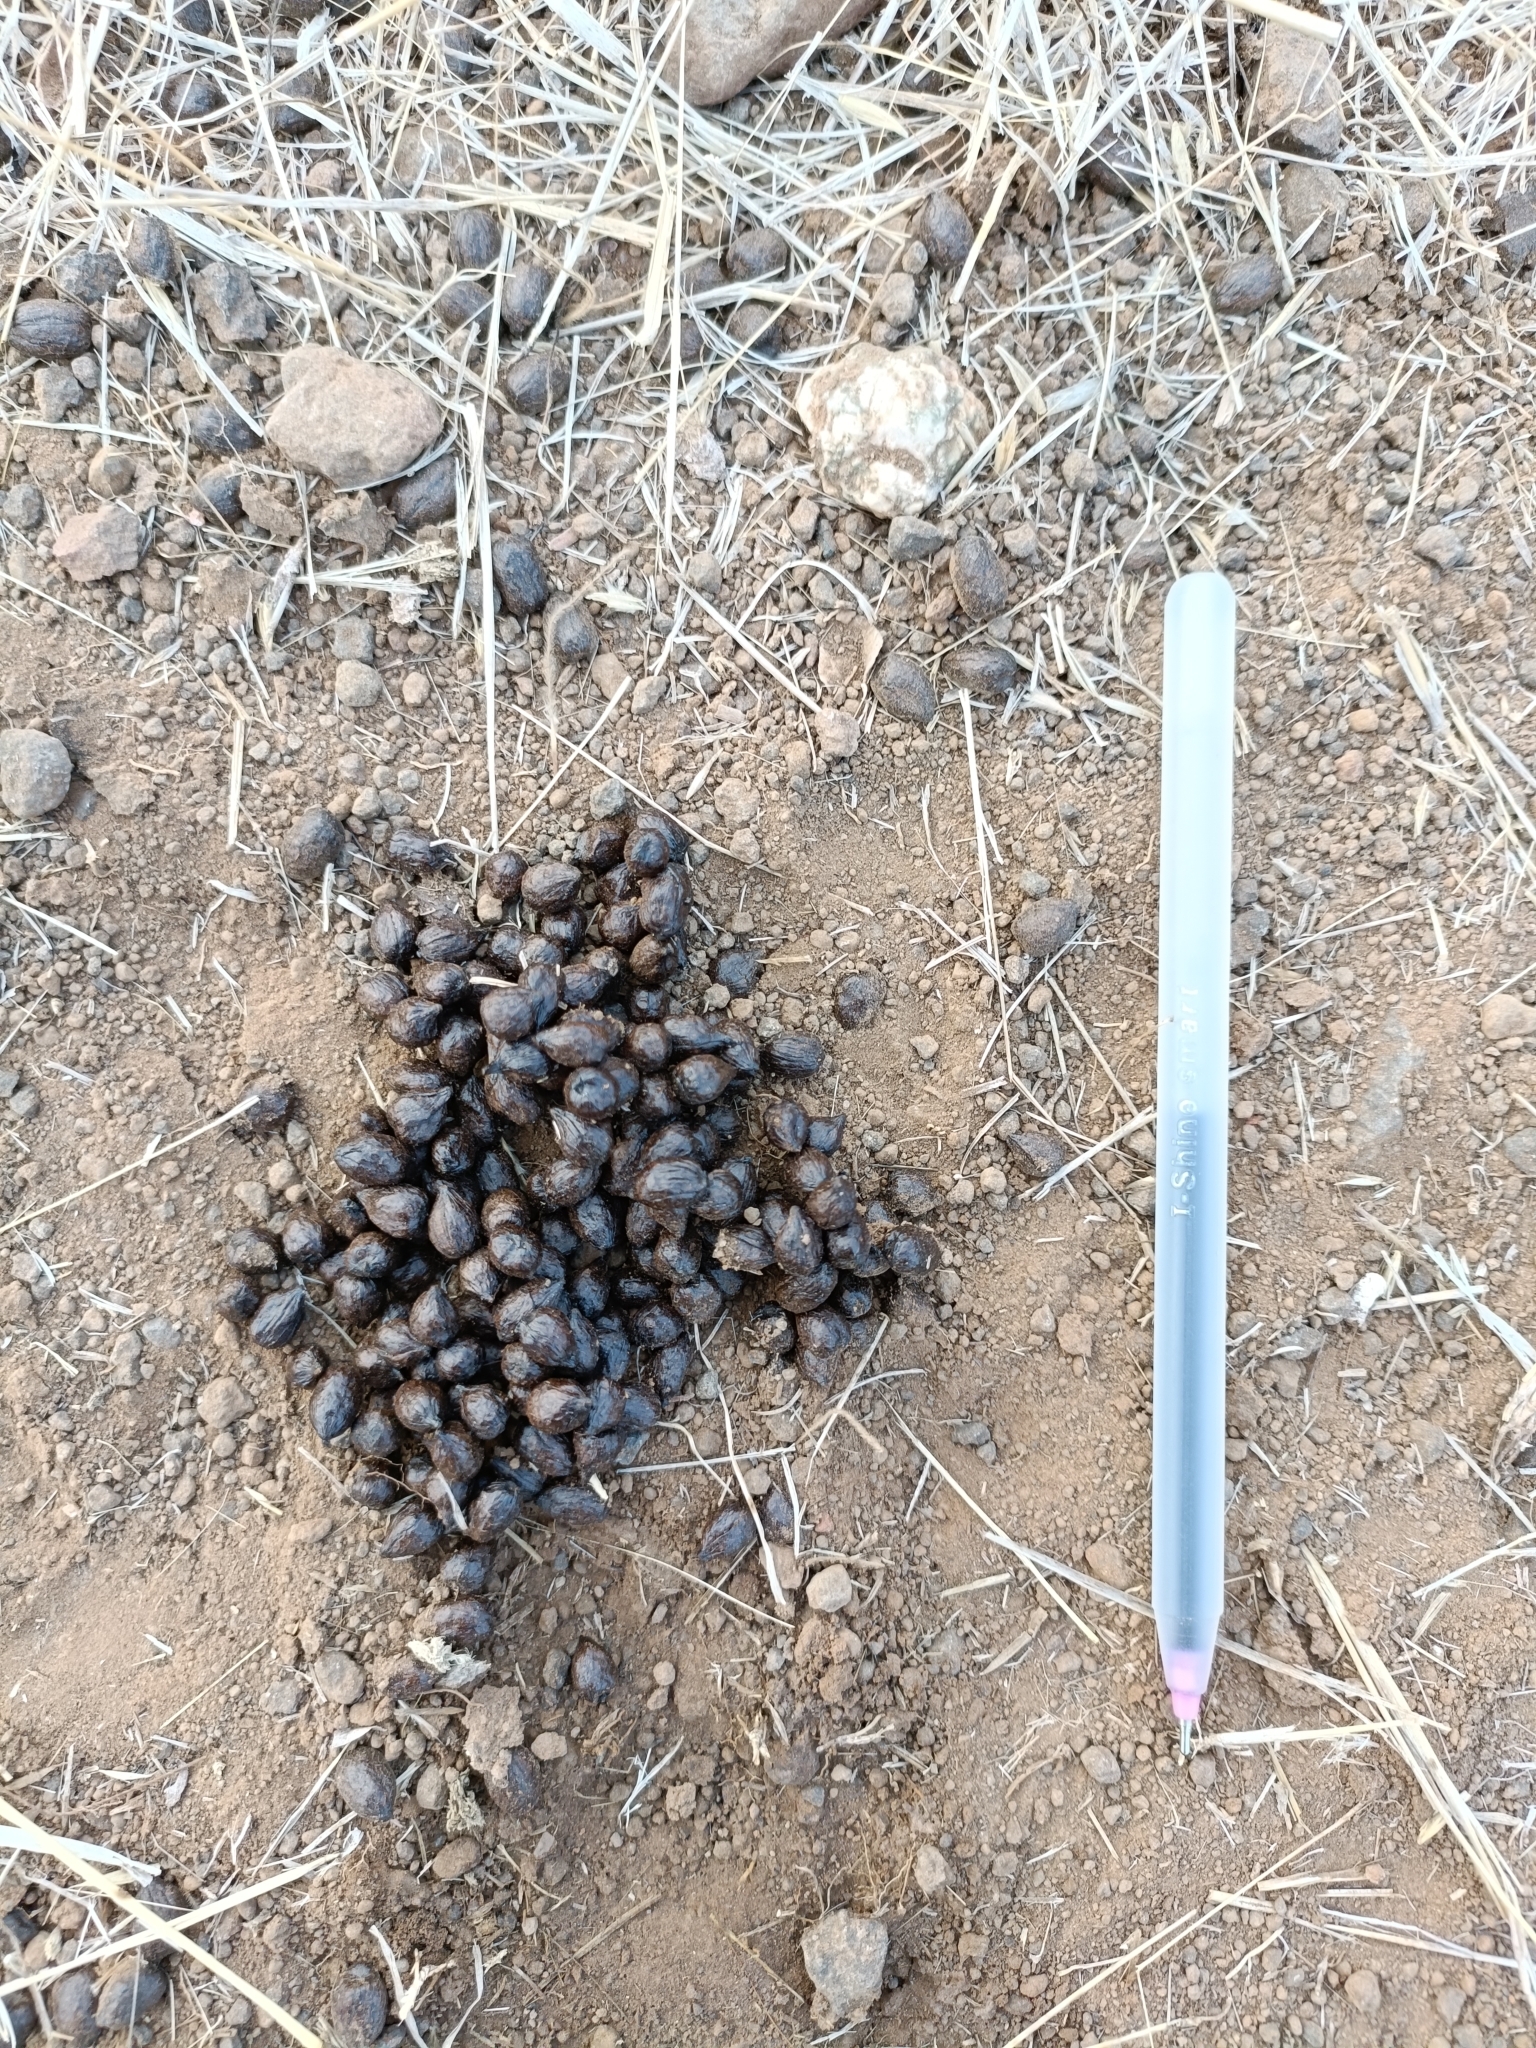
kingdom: Animalia
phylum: Chordata
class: Mammalia
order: Artiodactyla
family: Bovidae
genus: Gazella
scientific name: Gazella bennettii
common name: Indian gazelle
